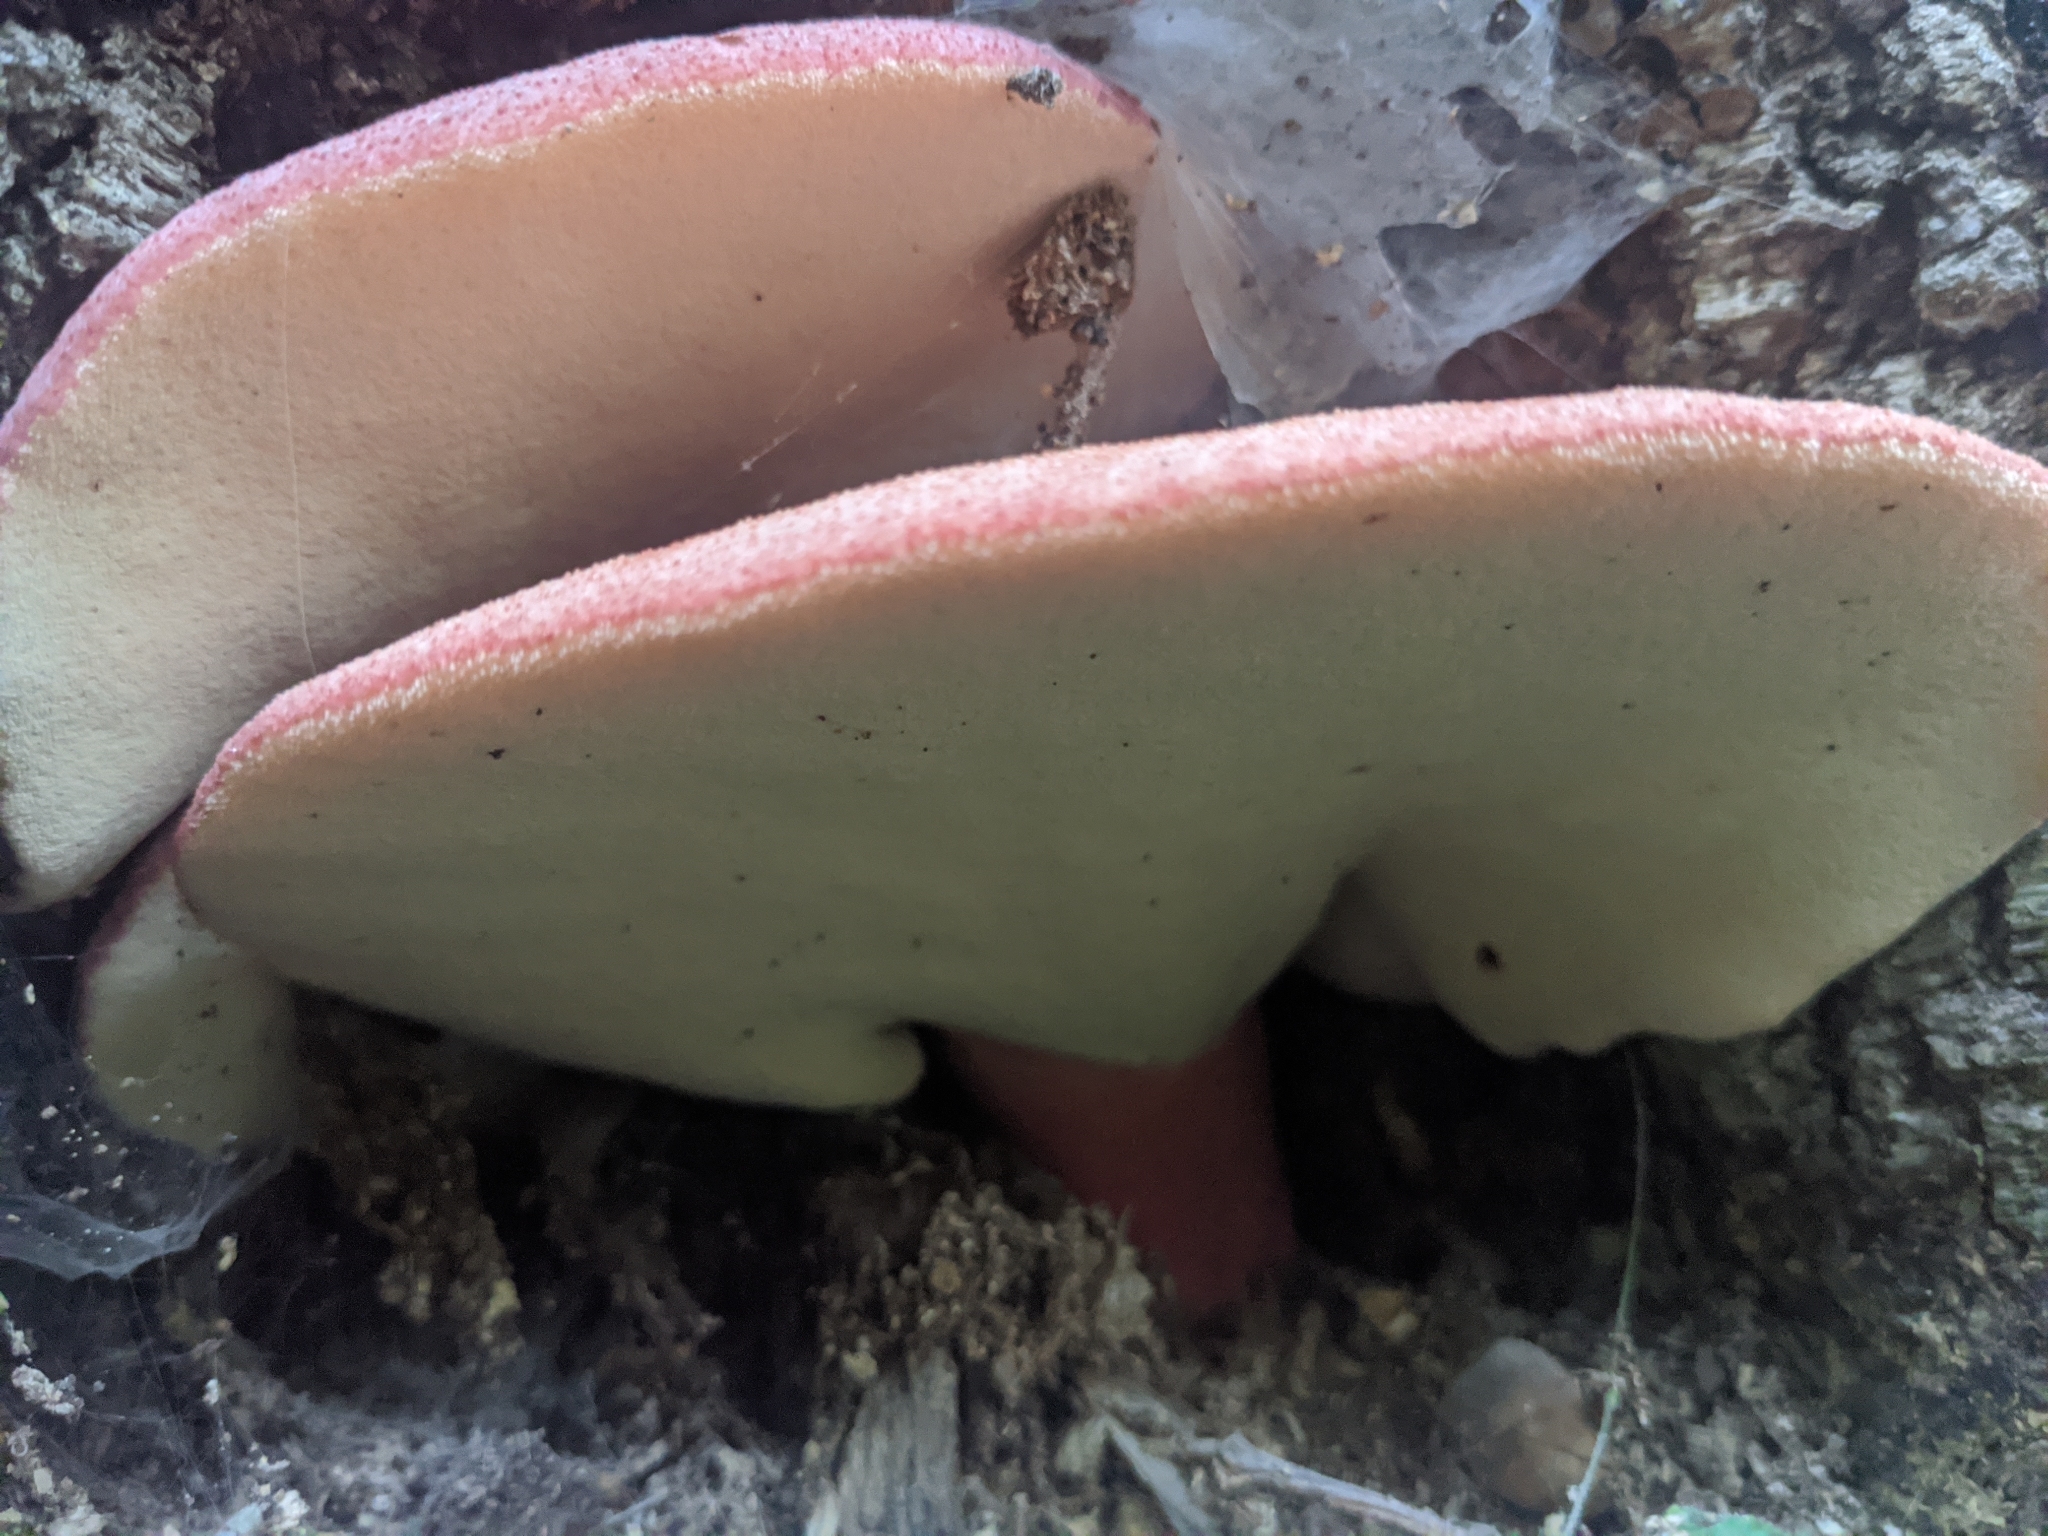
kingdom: Fungi
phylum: Basidiomycota
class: Agaricomycetes
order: Agaricales
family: Fistulinaceae
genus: Fistulina
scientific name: Fistulina hepatica
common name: Beef-steak fungus
